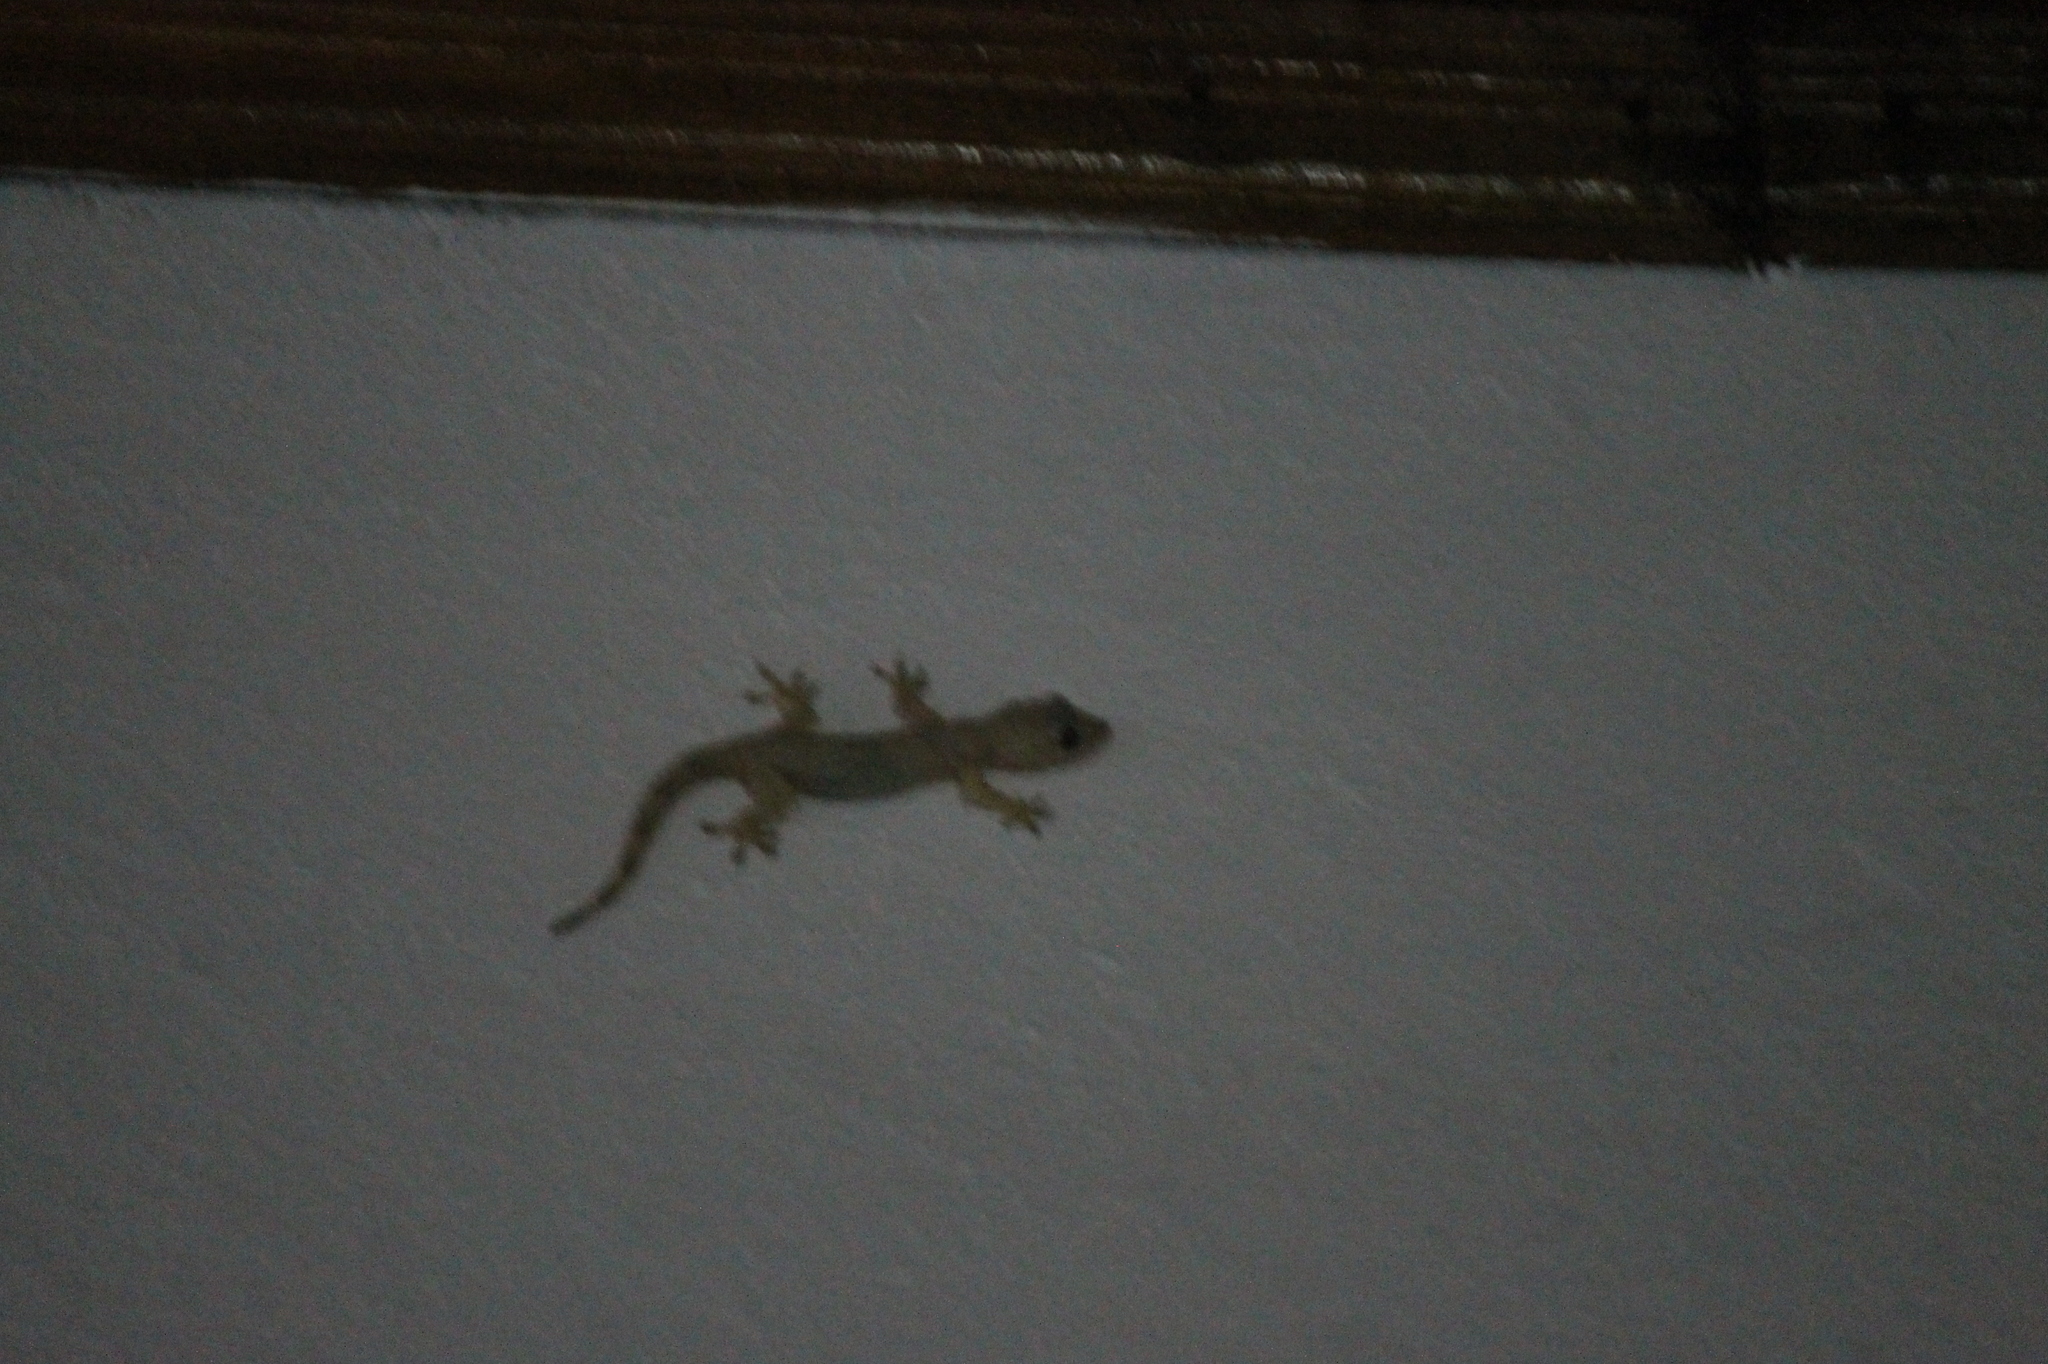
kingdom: Animalia
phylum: Chordata
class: Squamata
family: Gekkonidae
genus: Hemidactylus
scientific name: Hemidactylus
